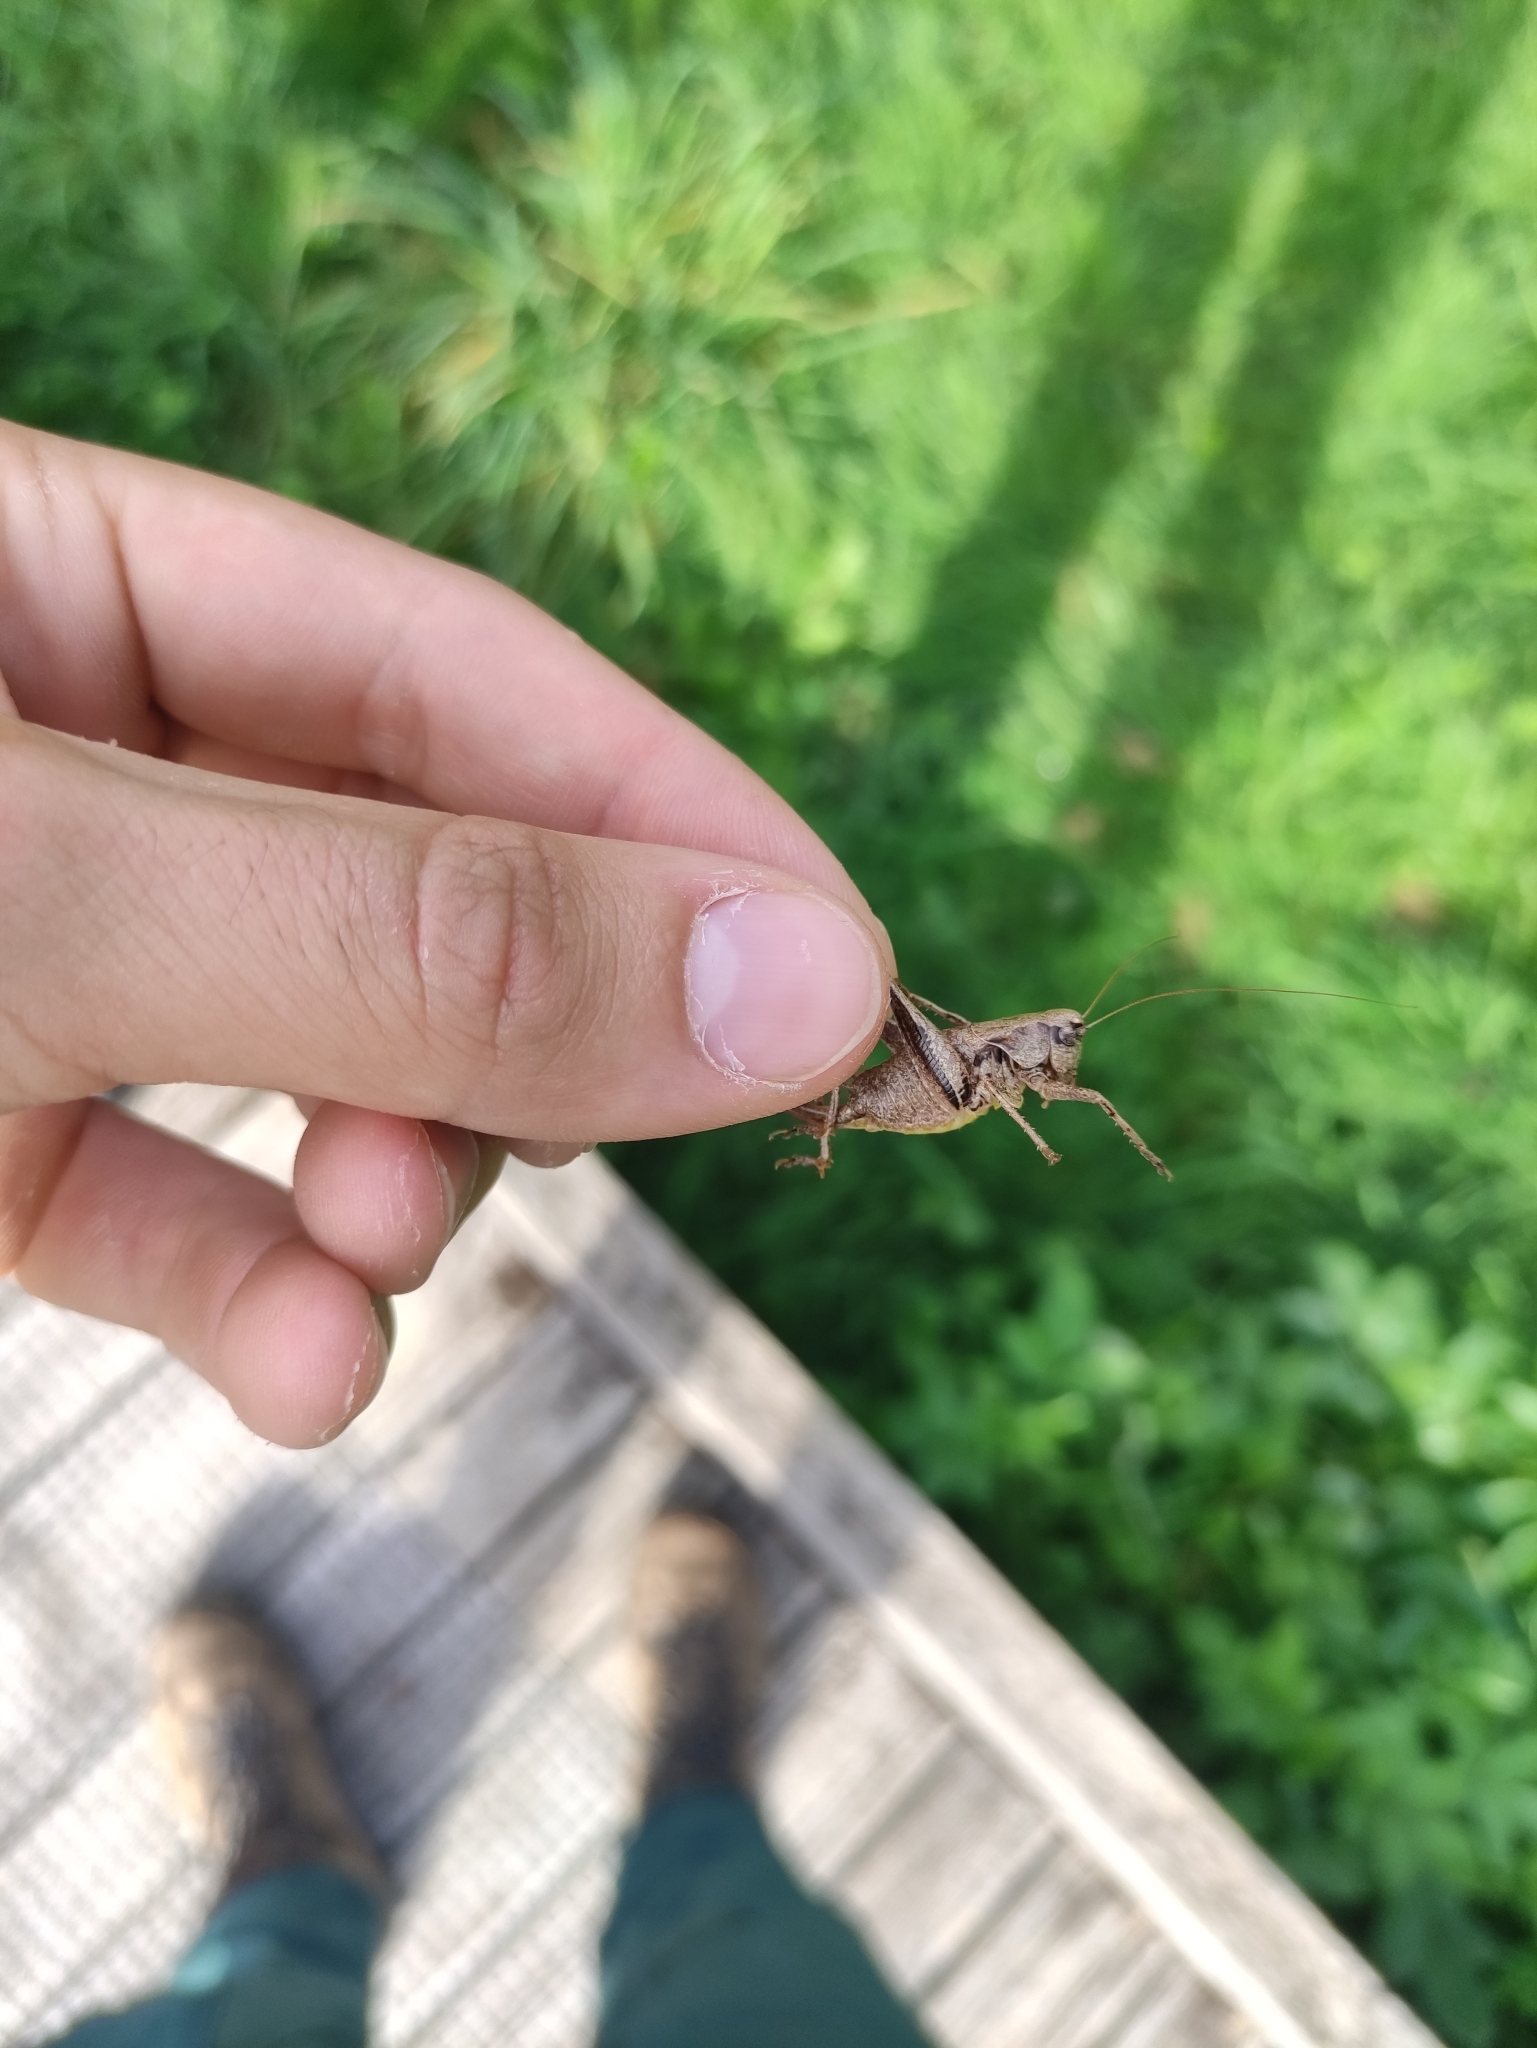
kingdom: Animalia
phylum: Arthropoda
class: Insecta
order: Orthoptera
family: Tettigoniidae
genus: Pholidoptera
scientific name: Pholidoptera griseoaptera
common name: Dark bush-cricket
